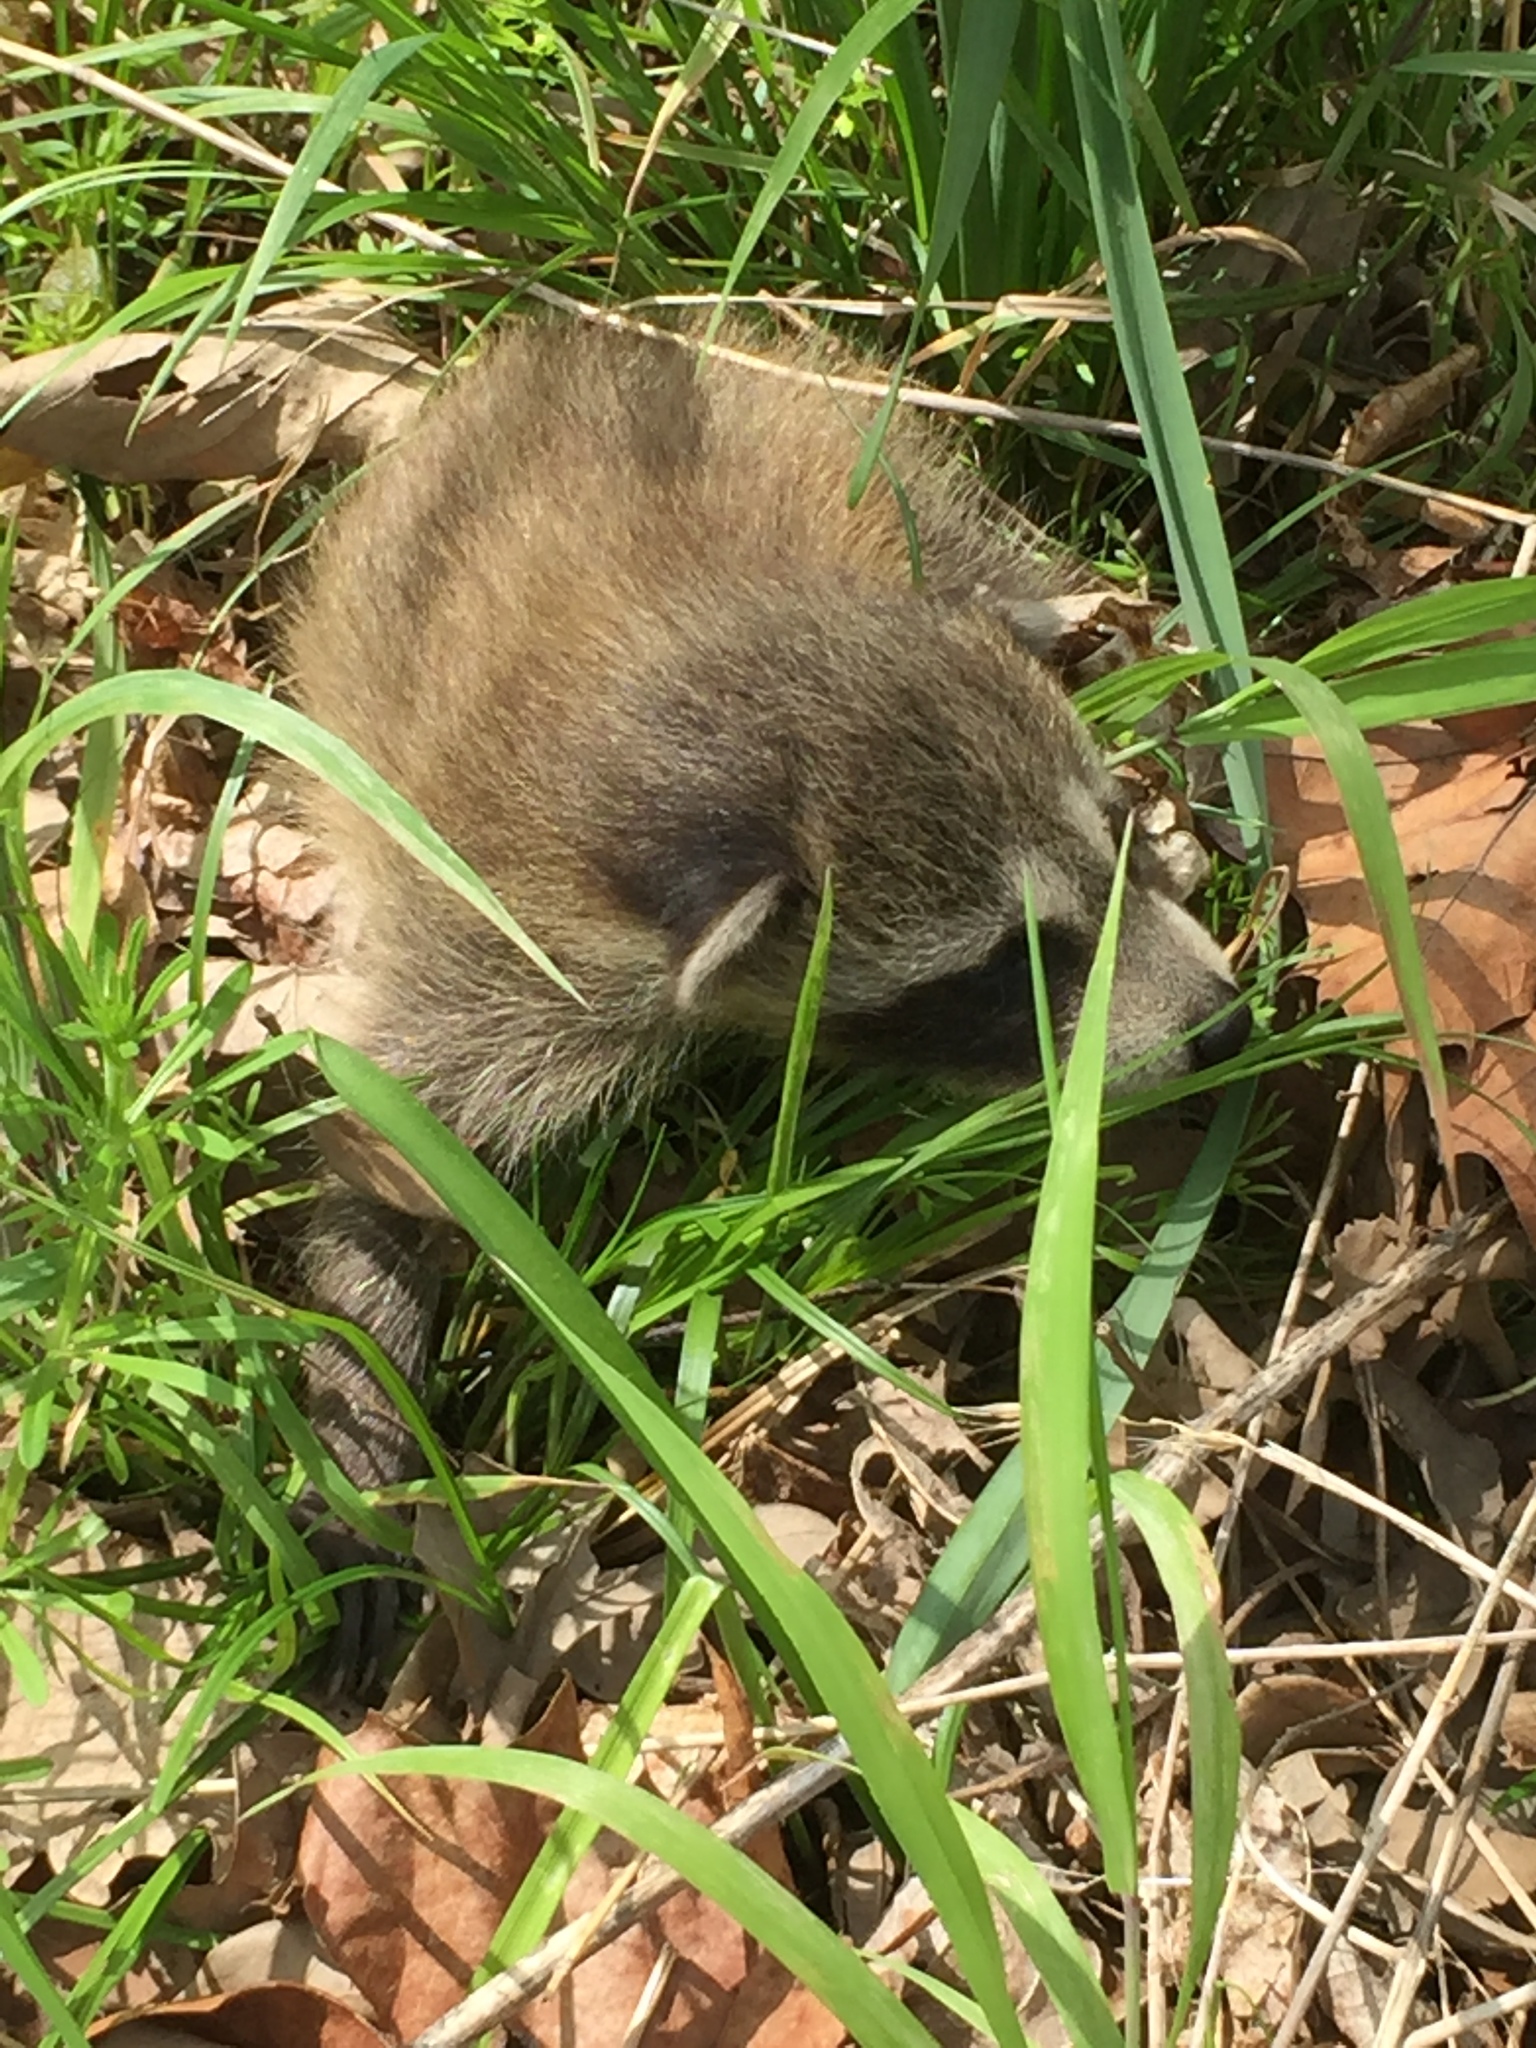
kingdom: Animalia
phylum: Chordata
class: Mammalia
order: Carnivora
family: Procyonidae
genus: Procyon
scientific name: Procyon lotor
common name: Raccoon
